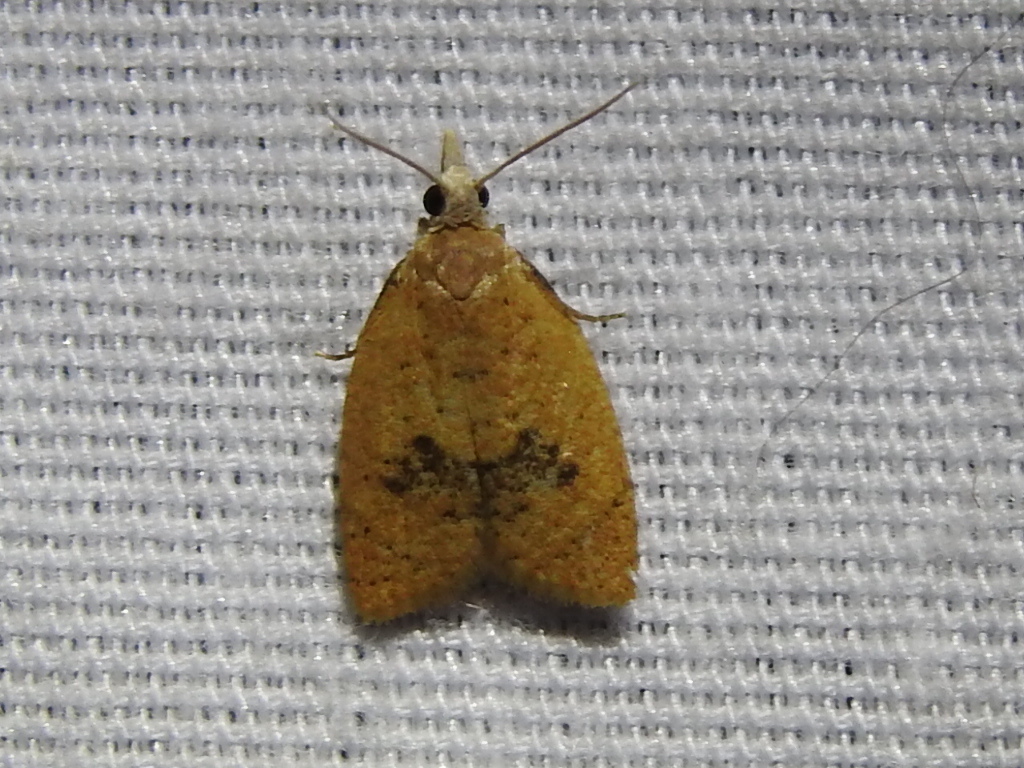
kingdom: Animalia
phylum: Arthropoda
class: Insecta
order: Lepidoptera
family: Tortricidae
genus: Sparganothoides
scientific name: Sparganothoides lentiginosana
